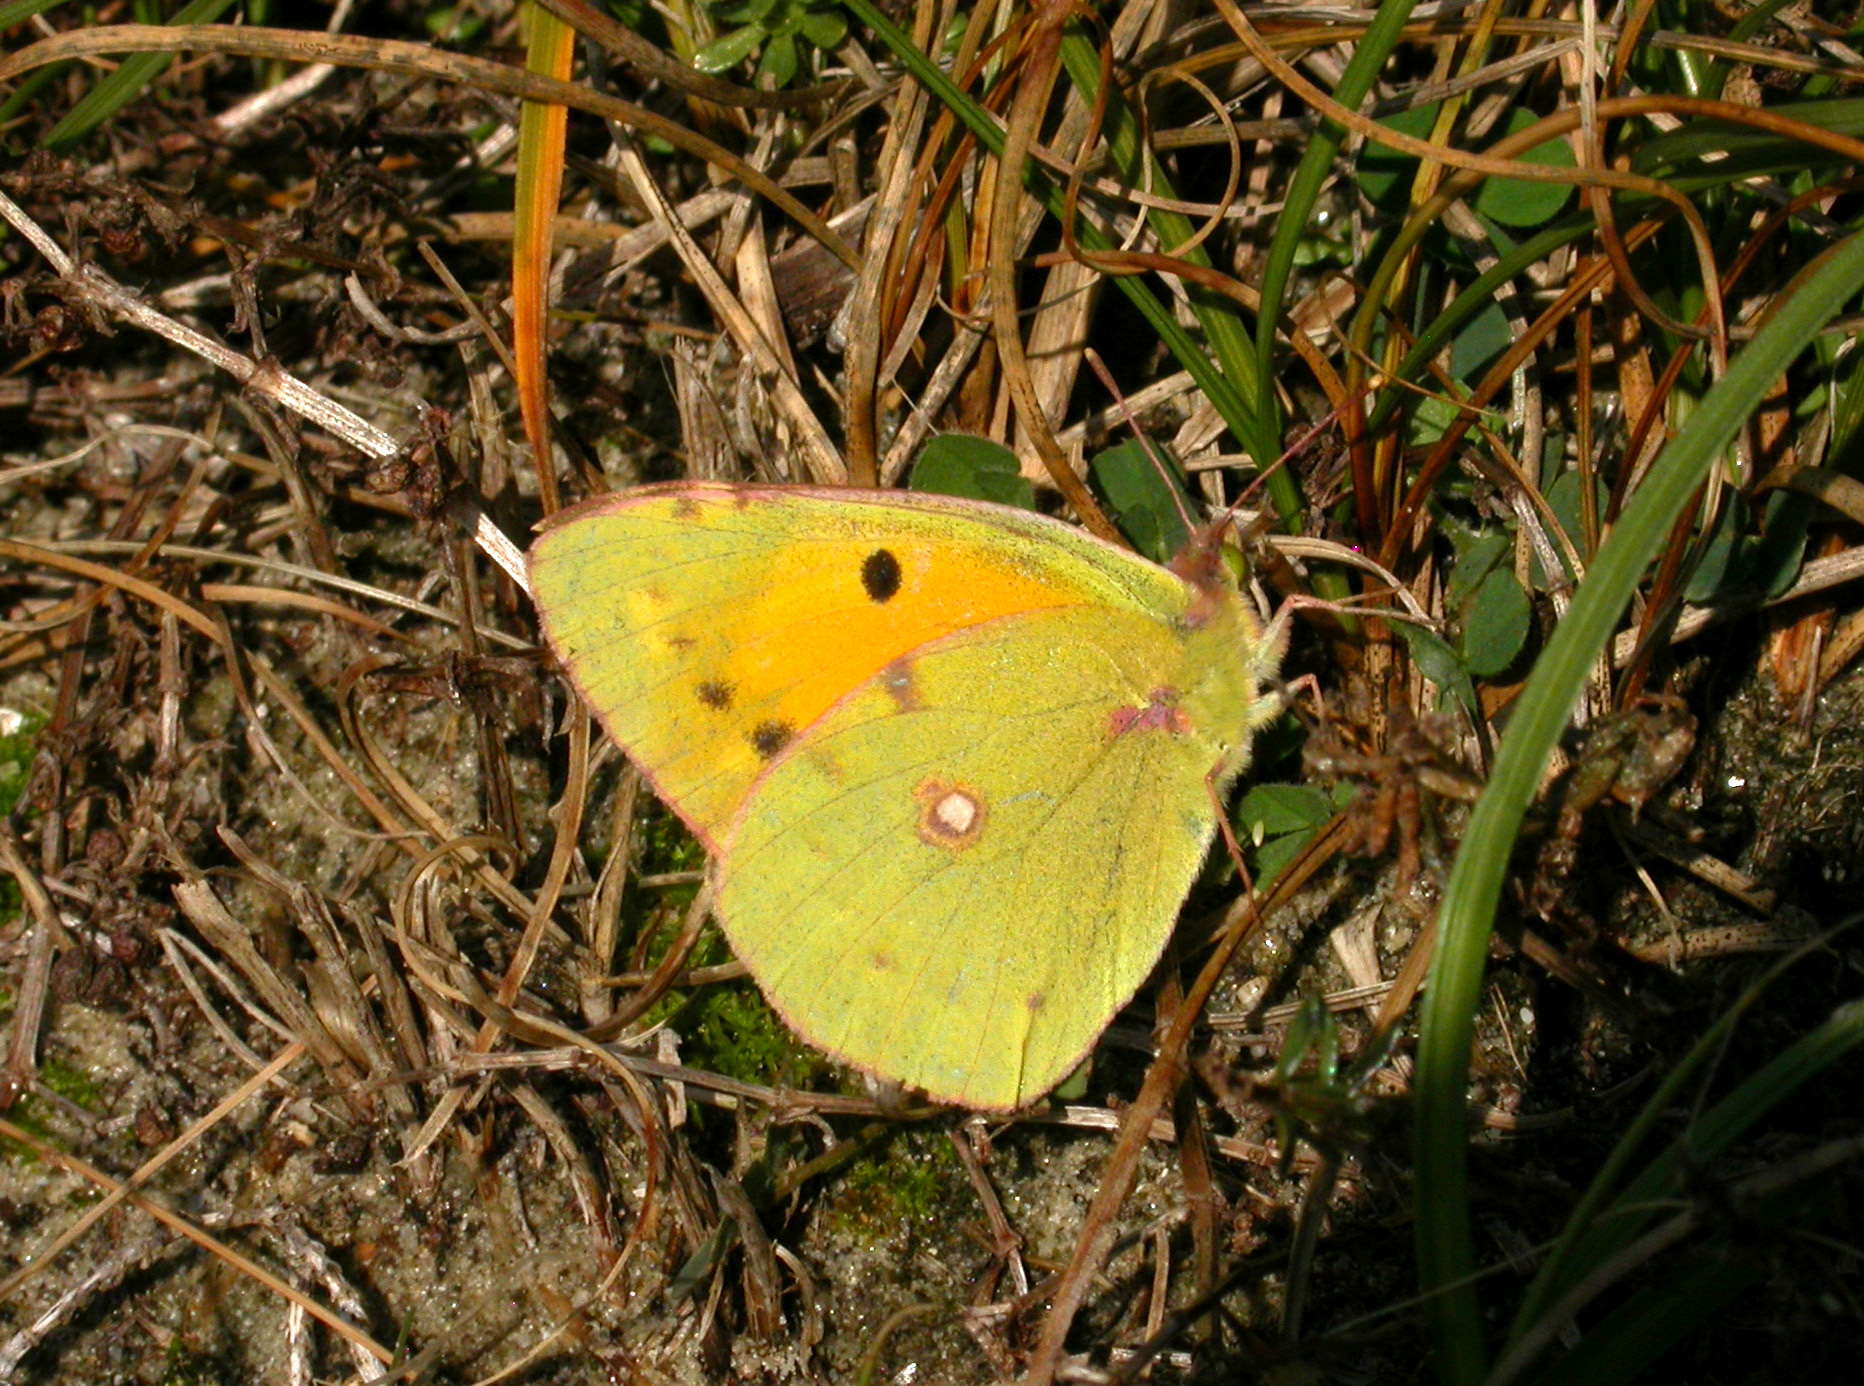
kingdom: Animalia
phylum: Arthropoda
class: Insecta
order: Lepidoptera
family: Pieridae
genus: Colias
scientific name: Colias croceus
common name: Clouded yellow
